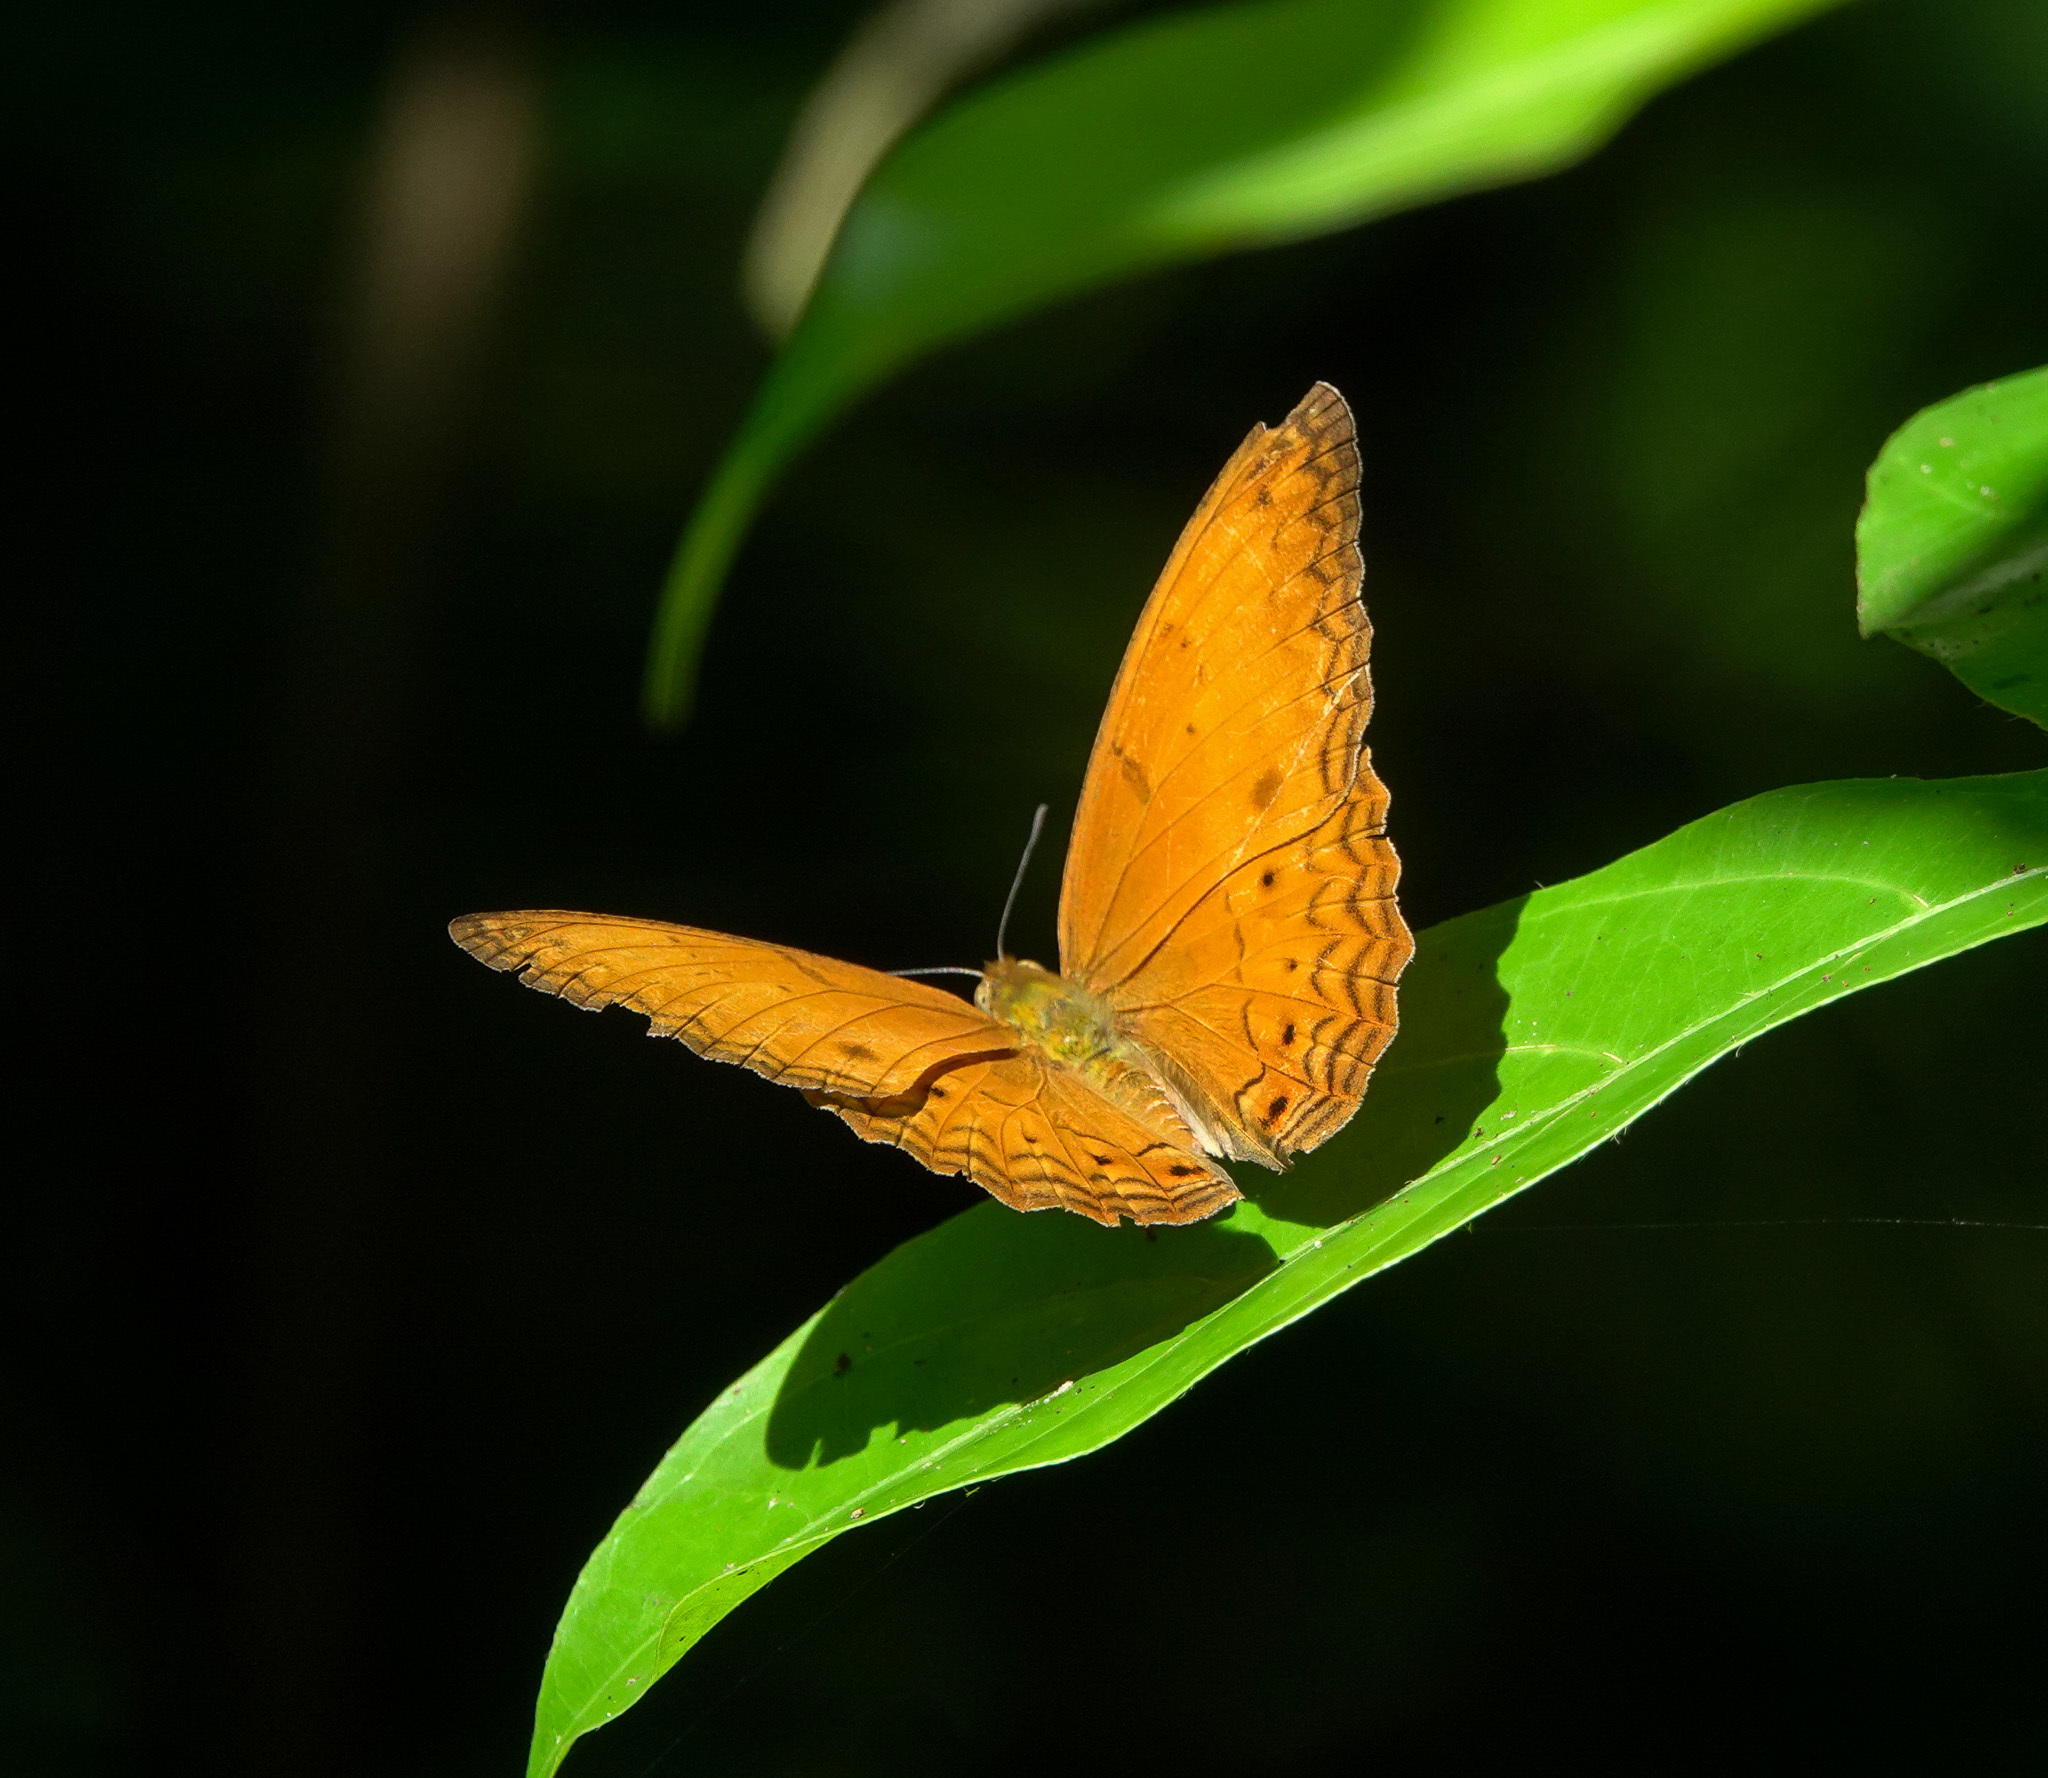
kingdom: Animalia
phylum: Arthropoda
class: Insecta
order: Lepidoptera
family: Nymphalidae
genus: Cirrochroa
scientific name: Cirrochroa tyche
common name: Common yeoman
